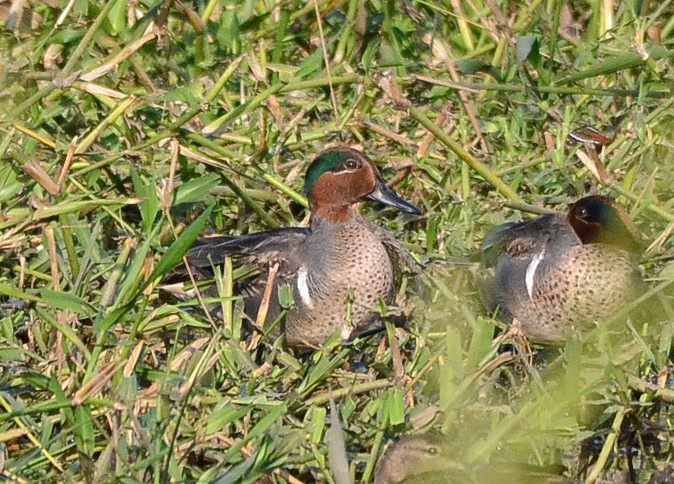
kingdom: Animalia
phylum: Chordata
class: Aves
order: Anseriformes
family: Anatidae
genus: Anas
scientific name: Anas carolinensis
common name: Green-winged teal
